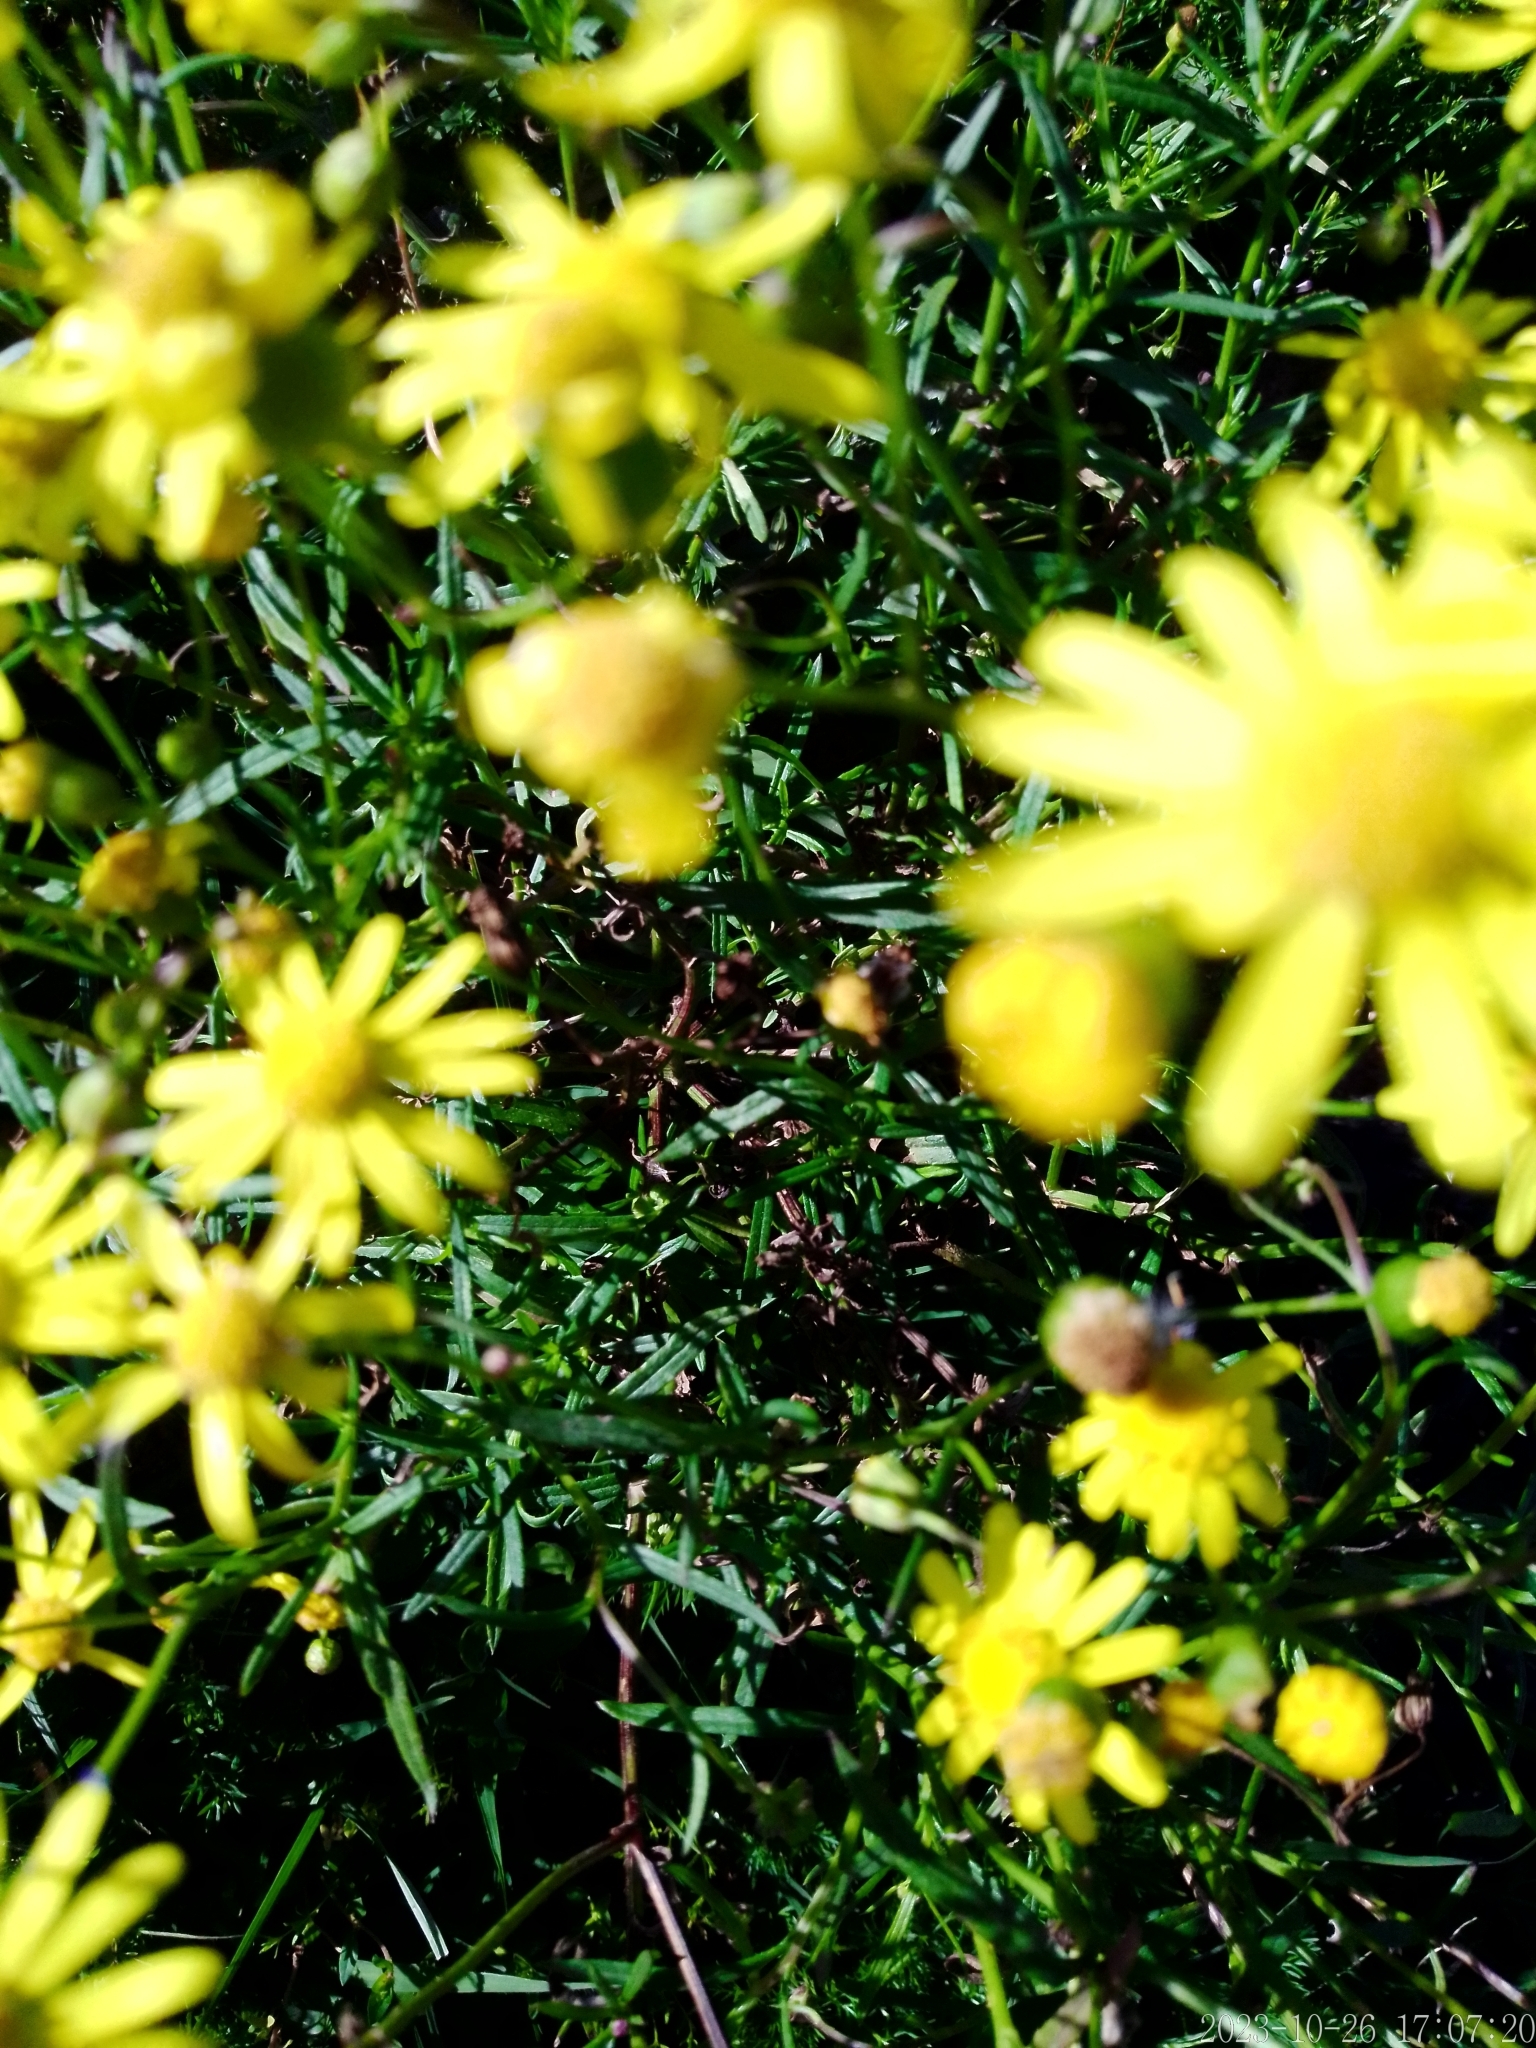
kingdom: Plantae
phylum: Tracheophyta
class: Magnoliopsida
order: Asterales
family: Asteraceae
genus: Senecio
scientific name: Senecio madagascariensis
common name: Madagascar ragwort
